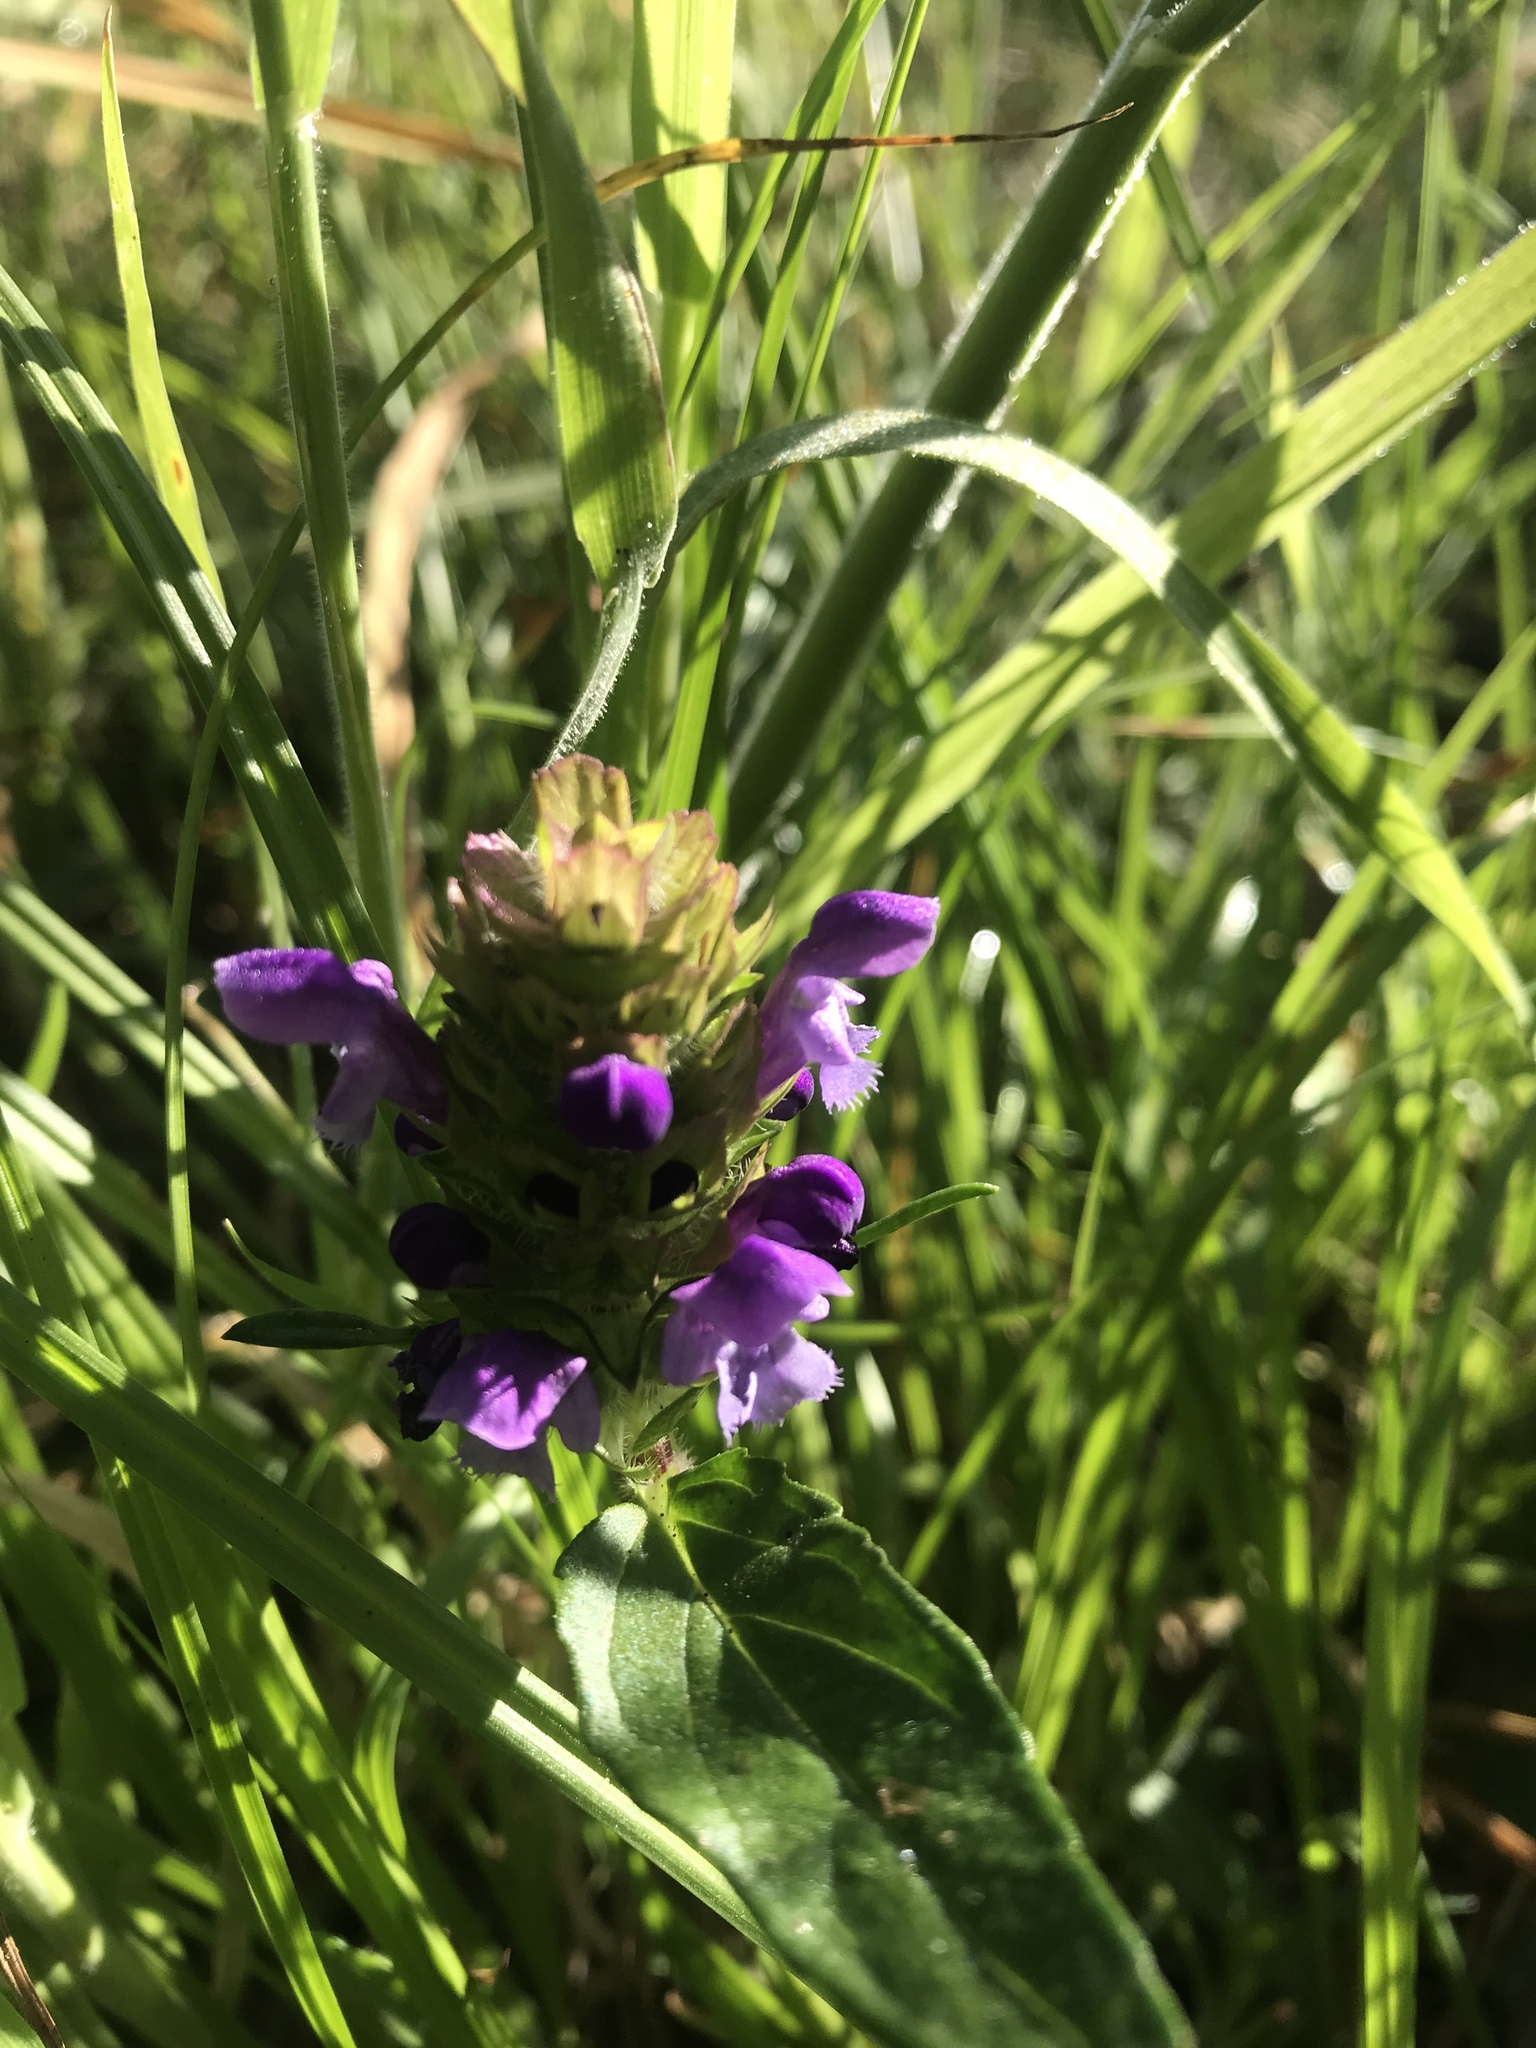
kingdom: Plantae
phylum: Tracheophyta
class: Magnoliopsida
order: Lamiales
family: Lamiaceae
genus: Prunella
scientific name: Prunella vulgaris
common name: Heal-all
